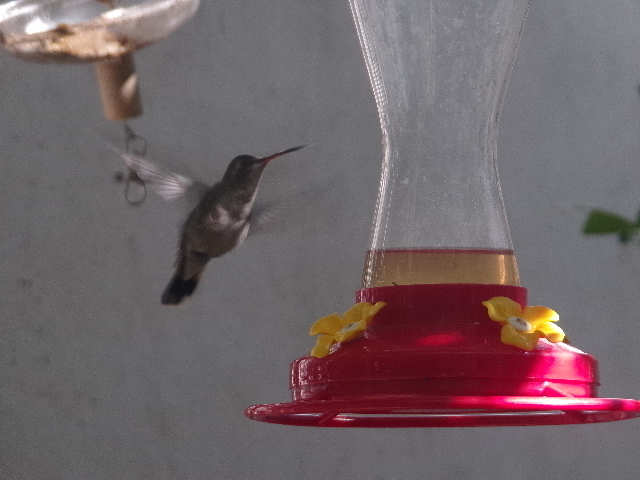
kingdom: Animalia
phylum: Chordata
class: Aves
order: Apodiformes
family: Trochilidae
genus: Cynanthus
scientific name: Cynanthus latirostris
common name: Broad-billed hummingbird
